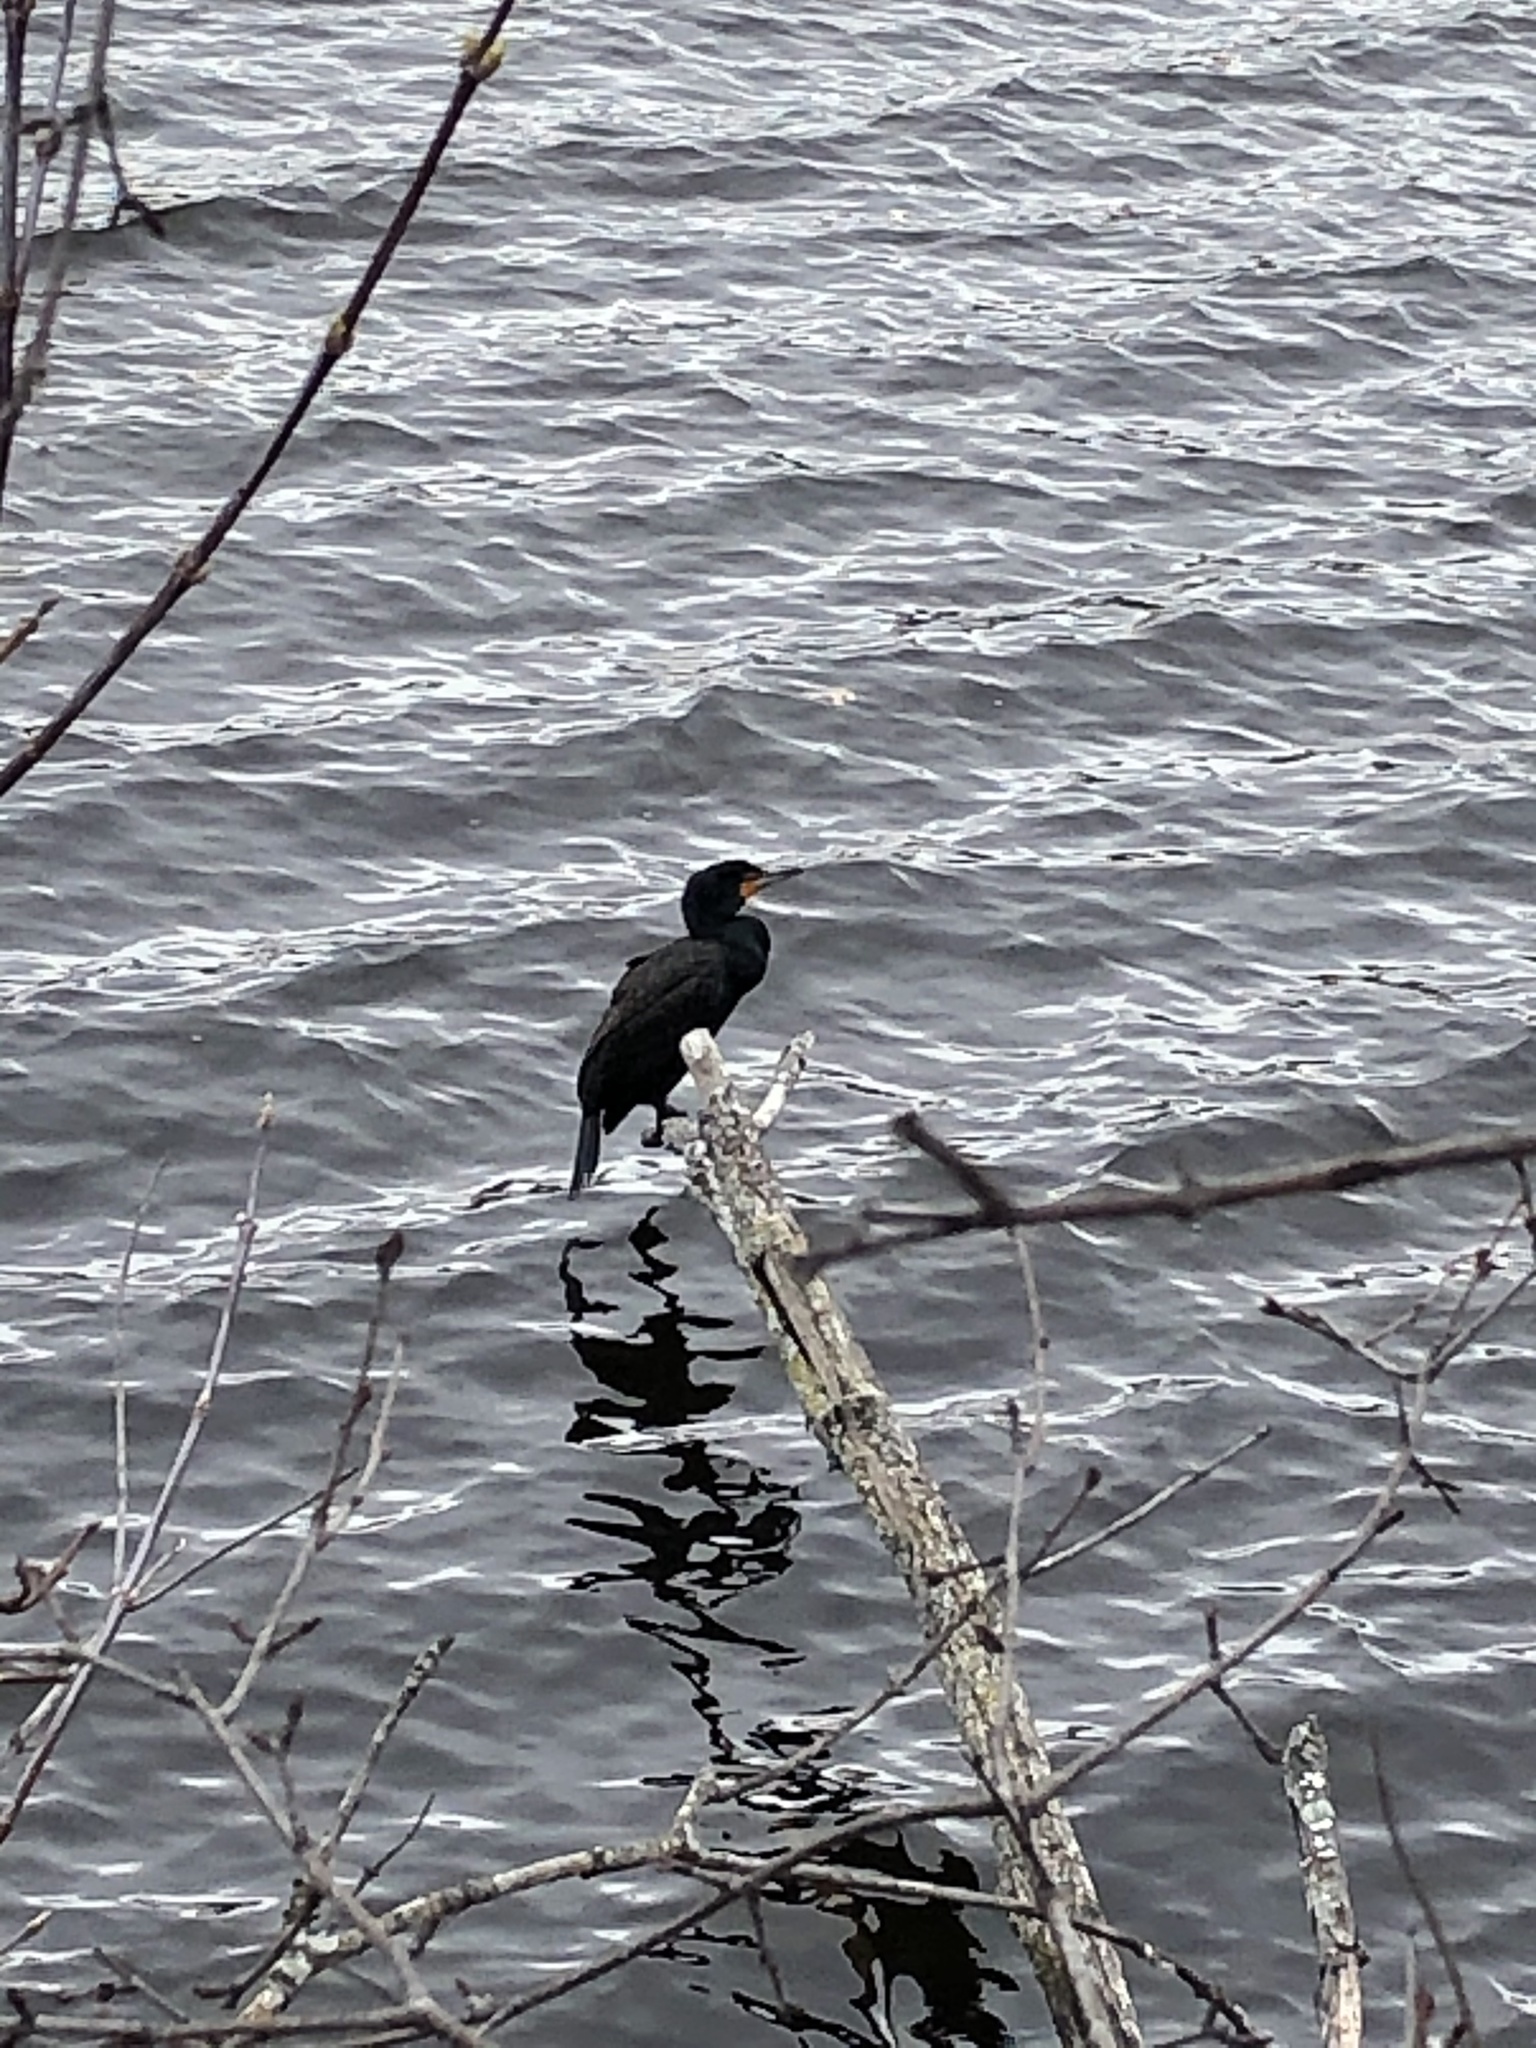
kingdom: Animalia
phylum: Chordata
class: Aves
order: Suliformes
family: Phalacrocoracidae
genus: Phalacrocorax
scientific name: Phalacrocorax auritus
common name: Double-crested cormorant
